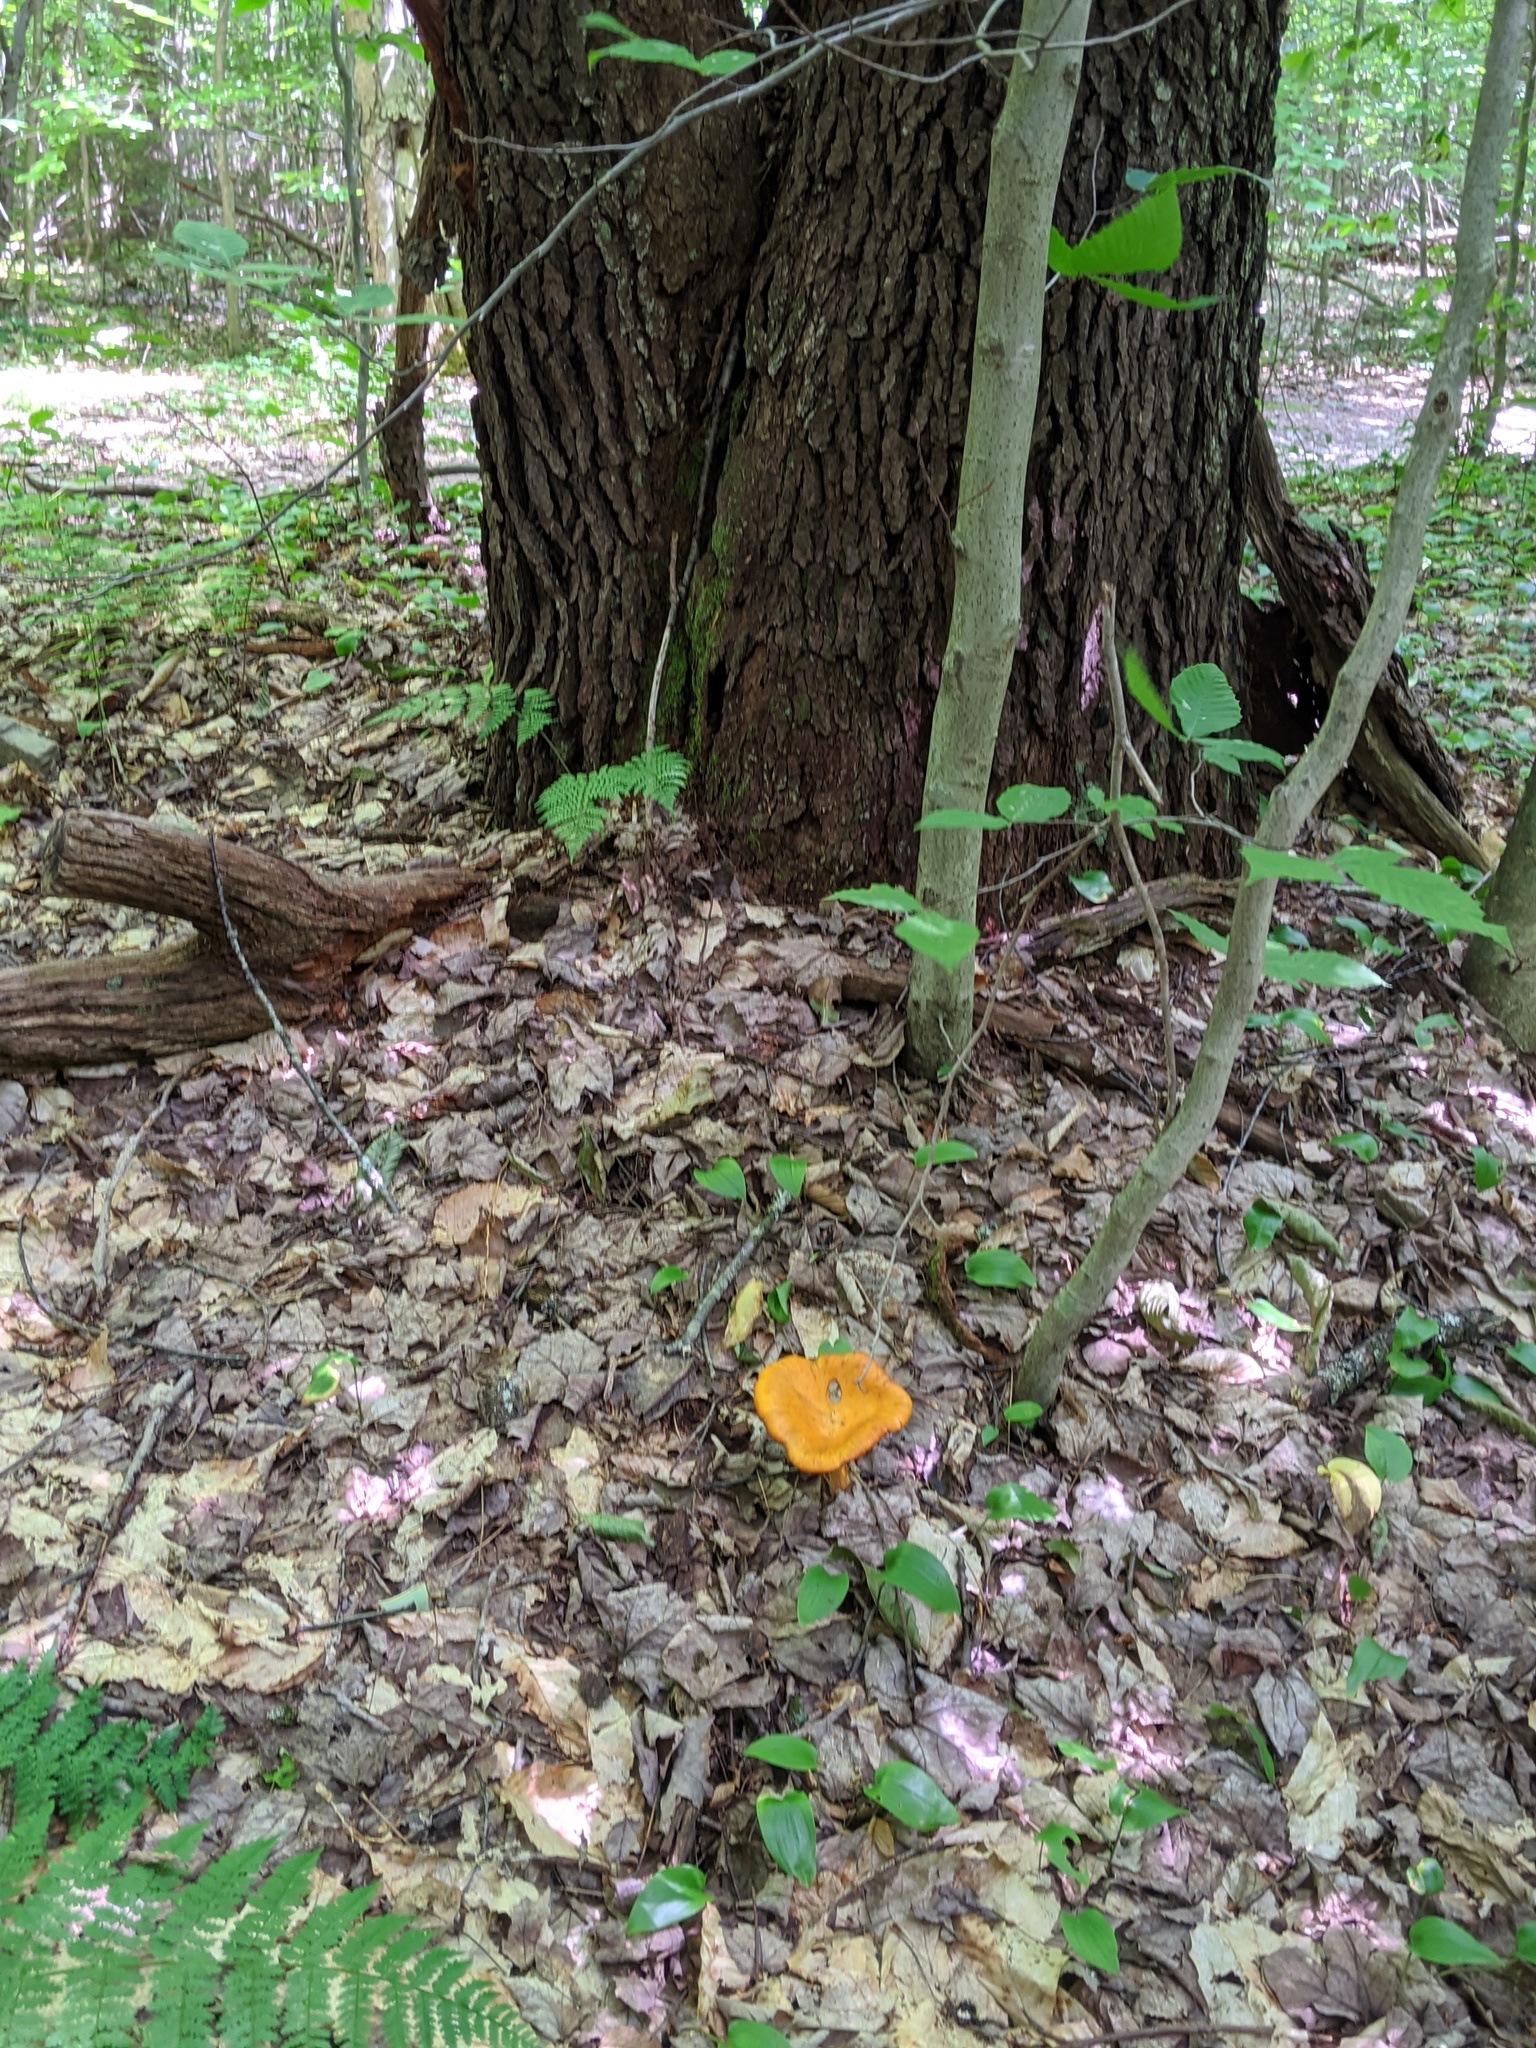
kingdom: Fungi
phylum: Basidiomycota
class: Agaricomycetes
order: Agaricales
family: Omphalotaceae
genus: Omphalotus
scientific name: Omphalotus illudens
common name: Jack o lantern
